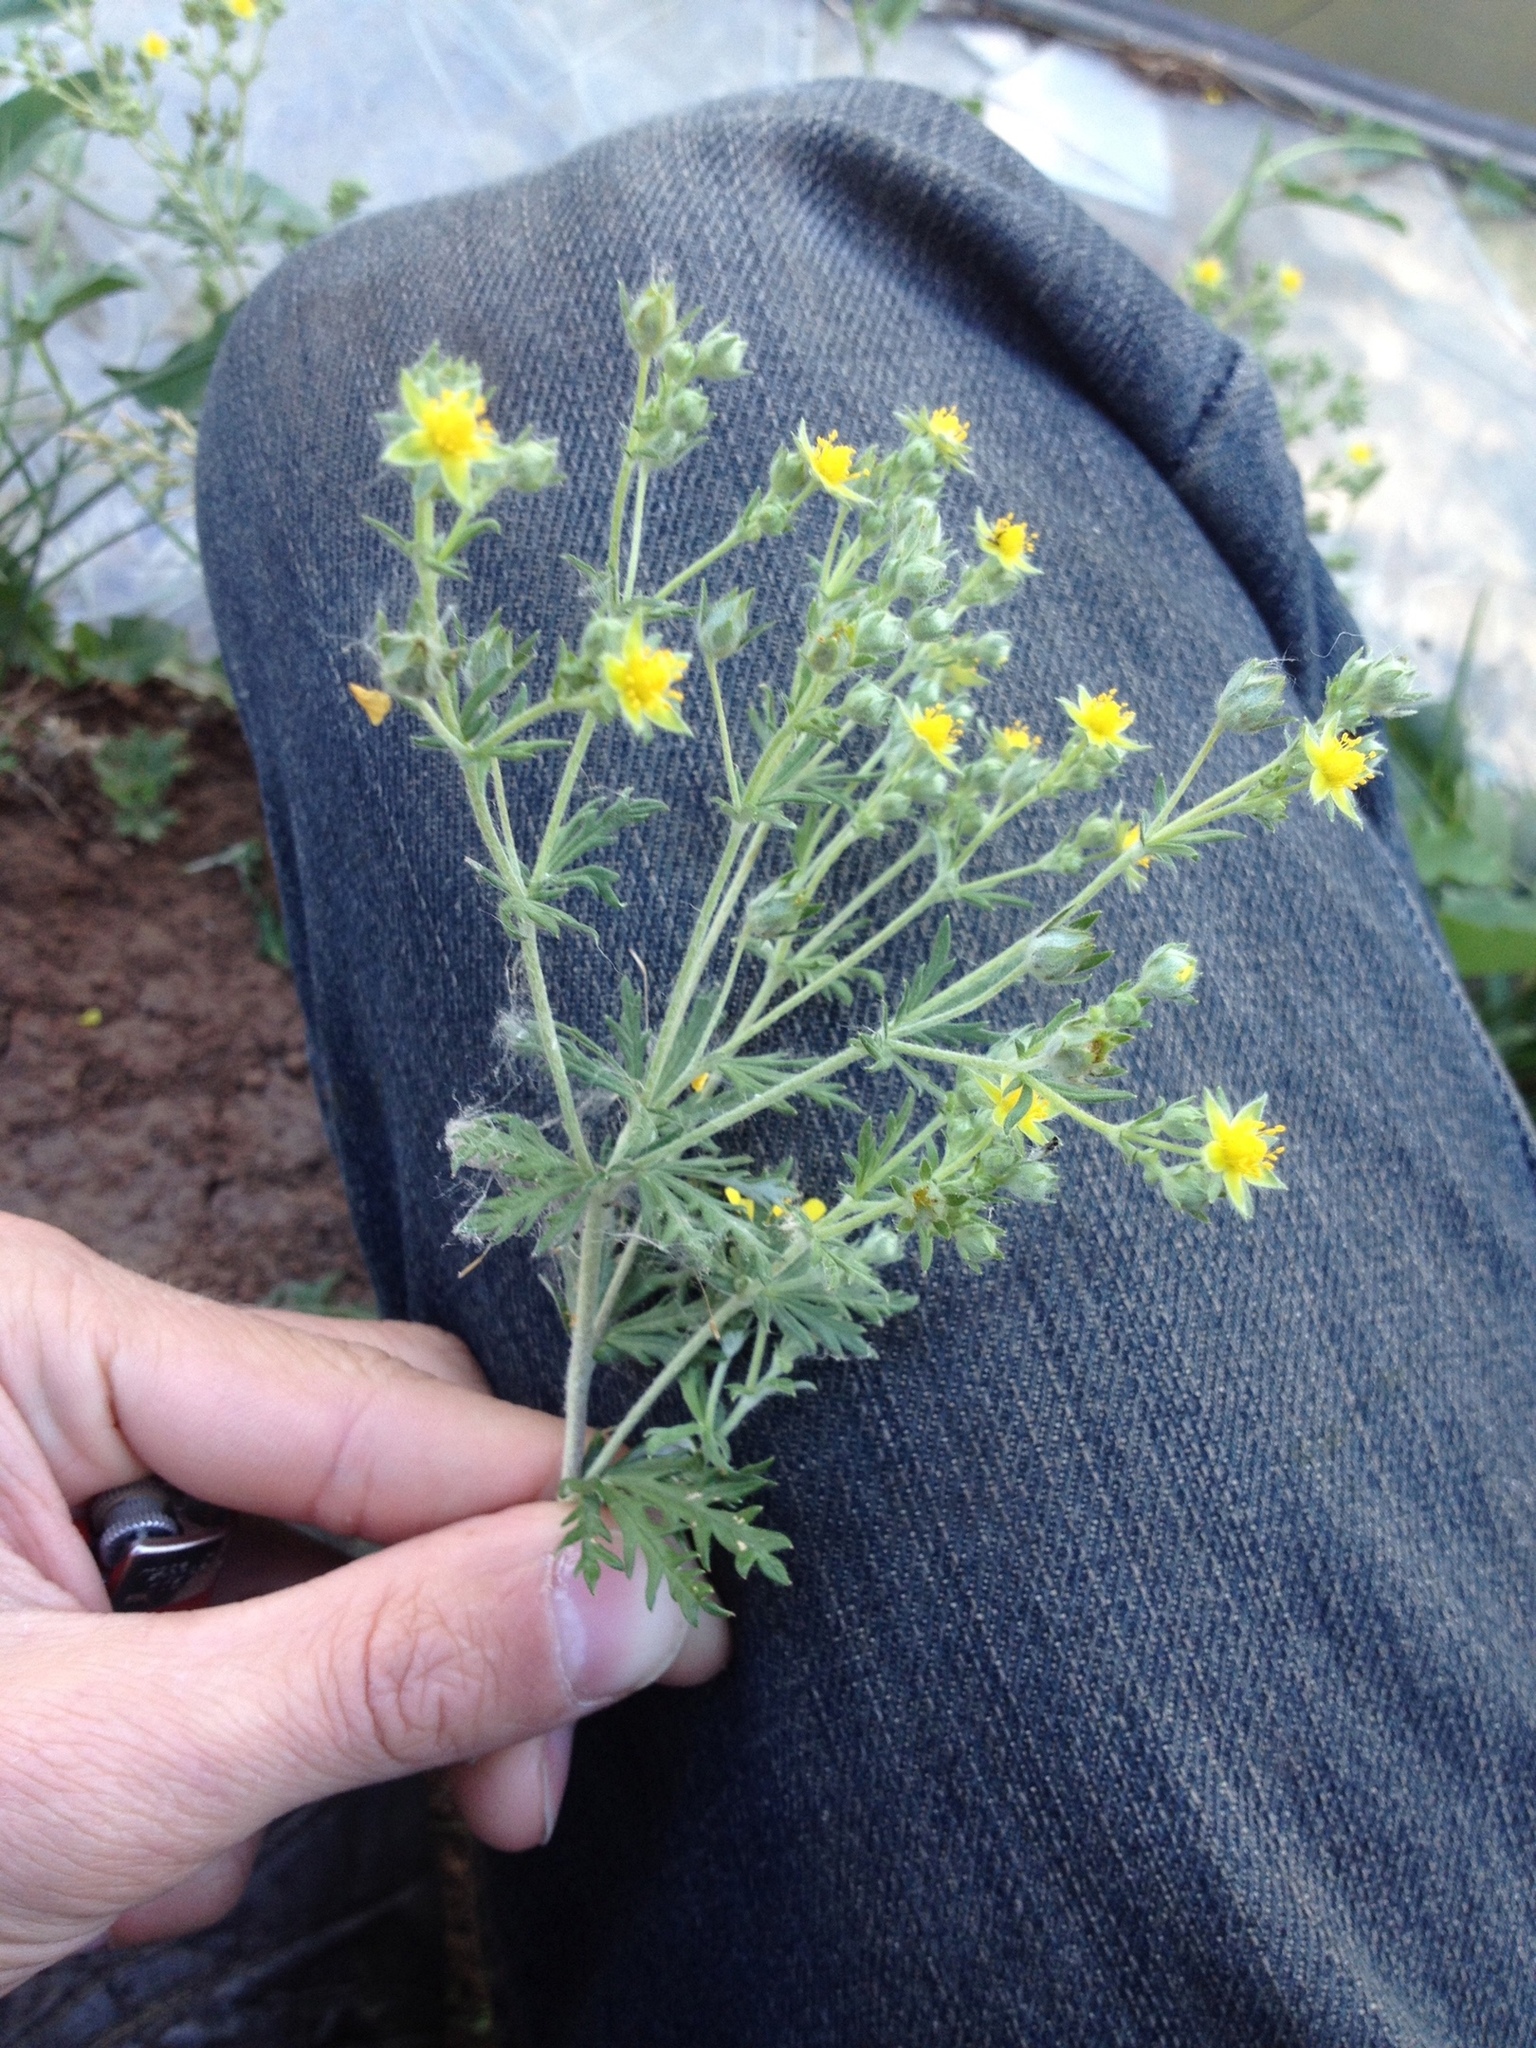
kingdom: Plantae
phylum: Tracheophyta
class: Magnoliopsida
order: Rosales
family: Rosaceae
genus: Potentilla
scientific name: Potentilla argentea
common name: Hoary cinquefoil
